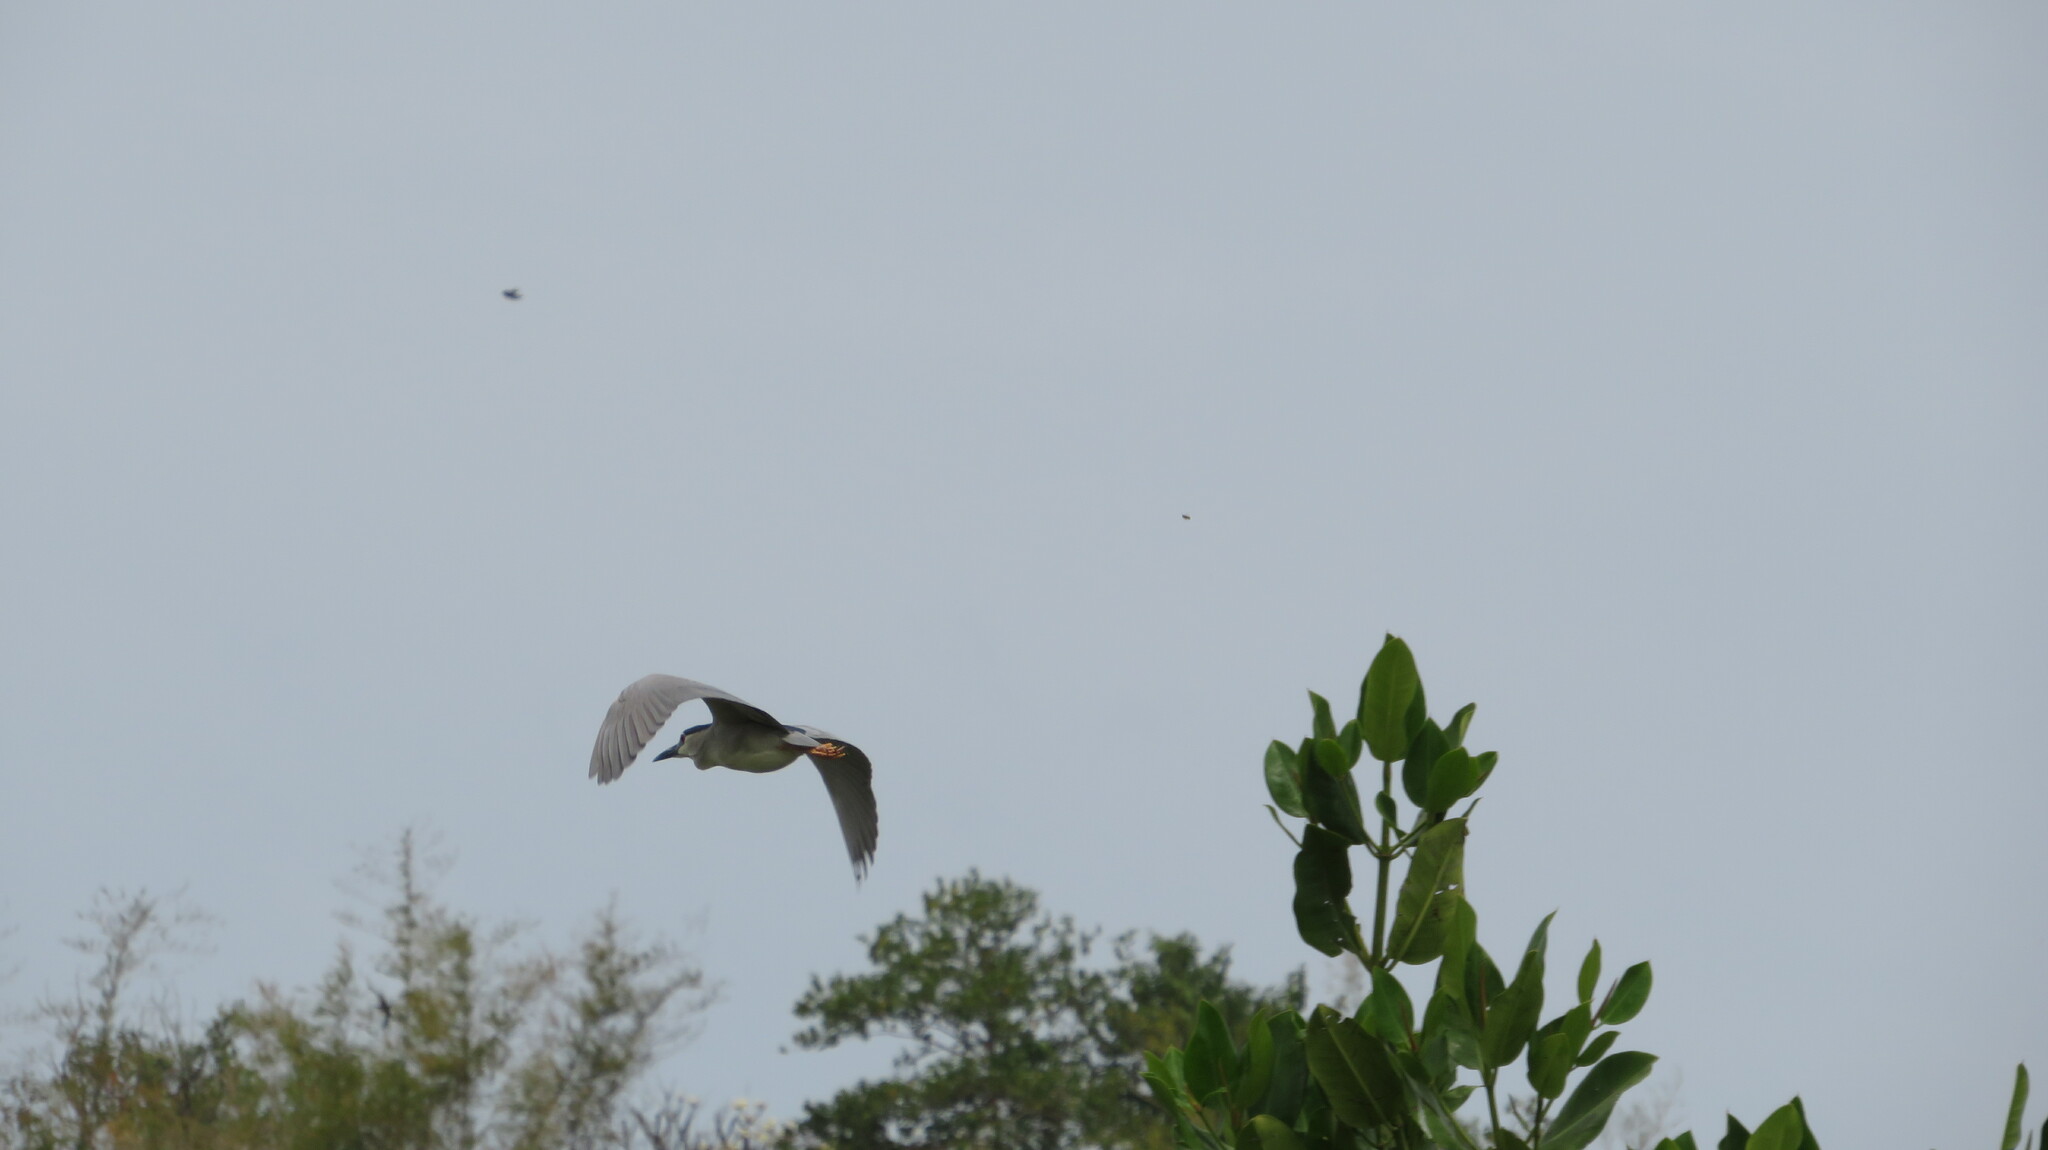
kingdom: Animalia
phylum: Chordata
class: Aves
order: Pelecaniformes
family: Ardeidae
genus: Nycticorax
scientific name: Nycticorax nycticorax
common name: Black-crowned night heron
